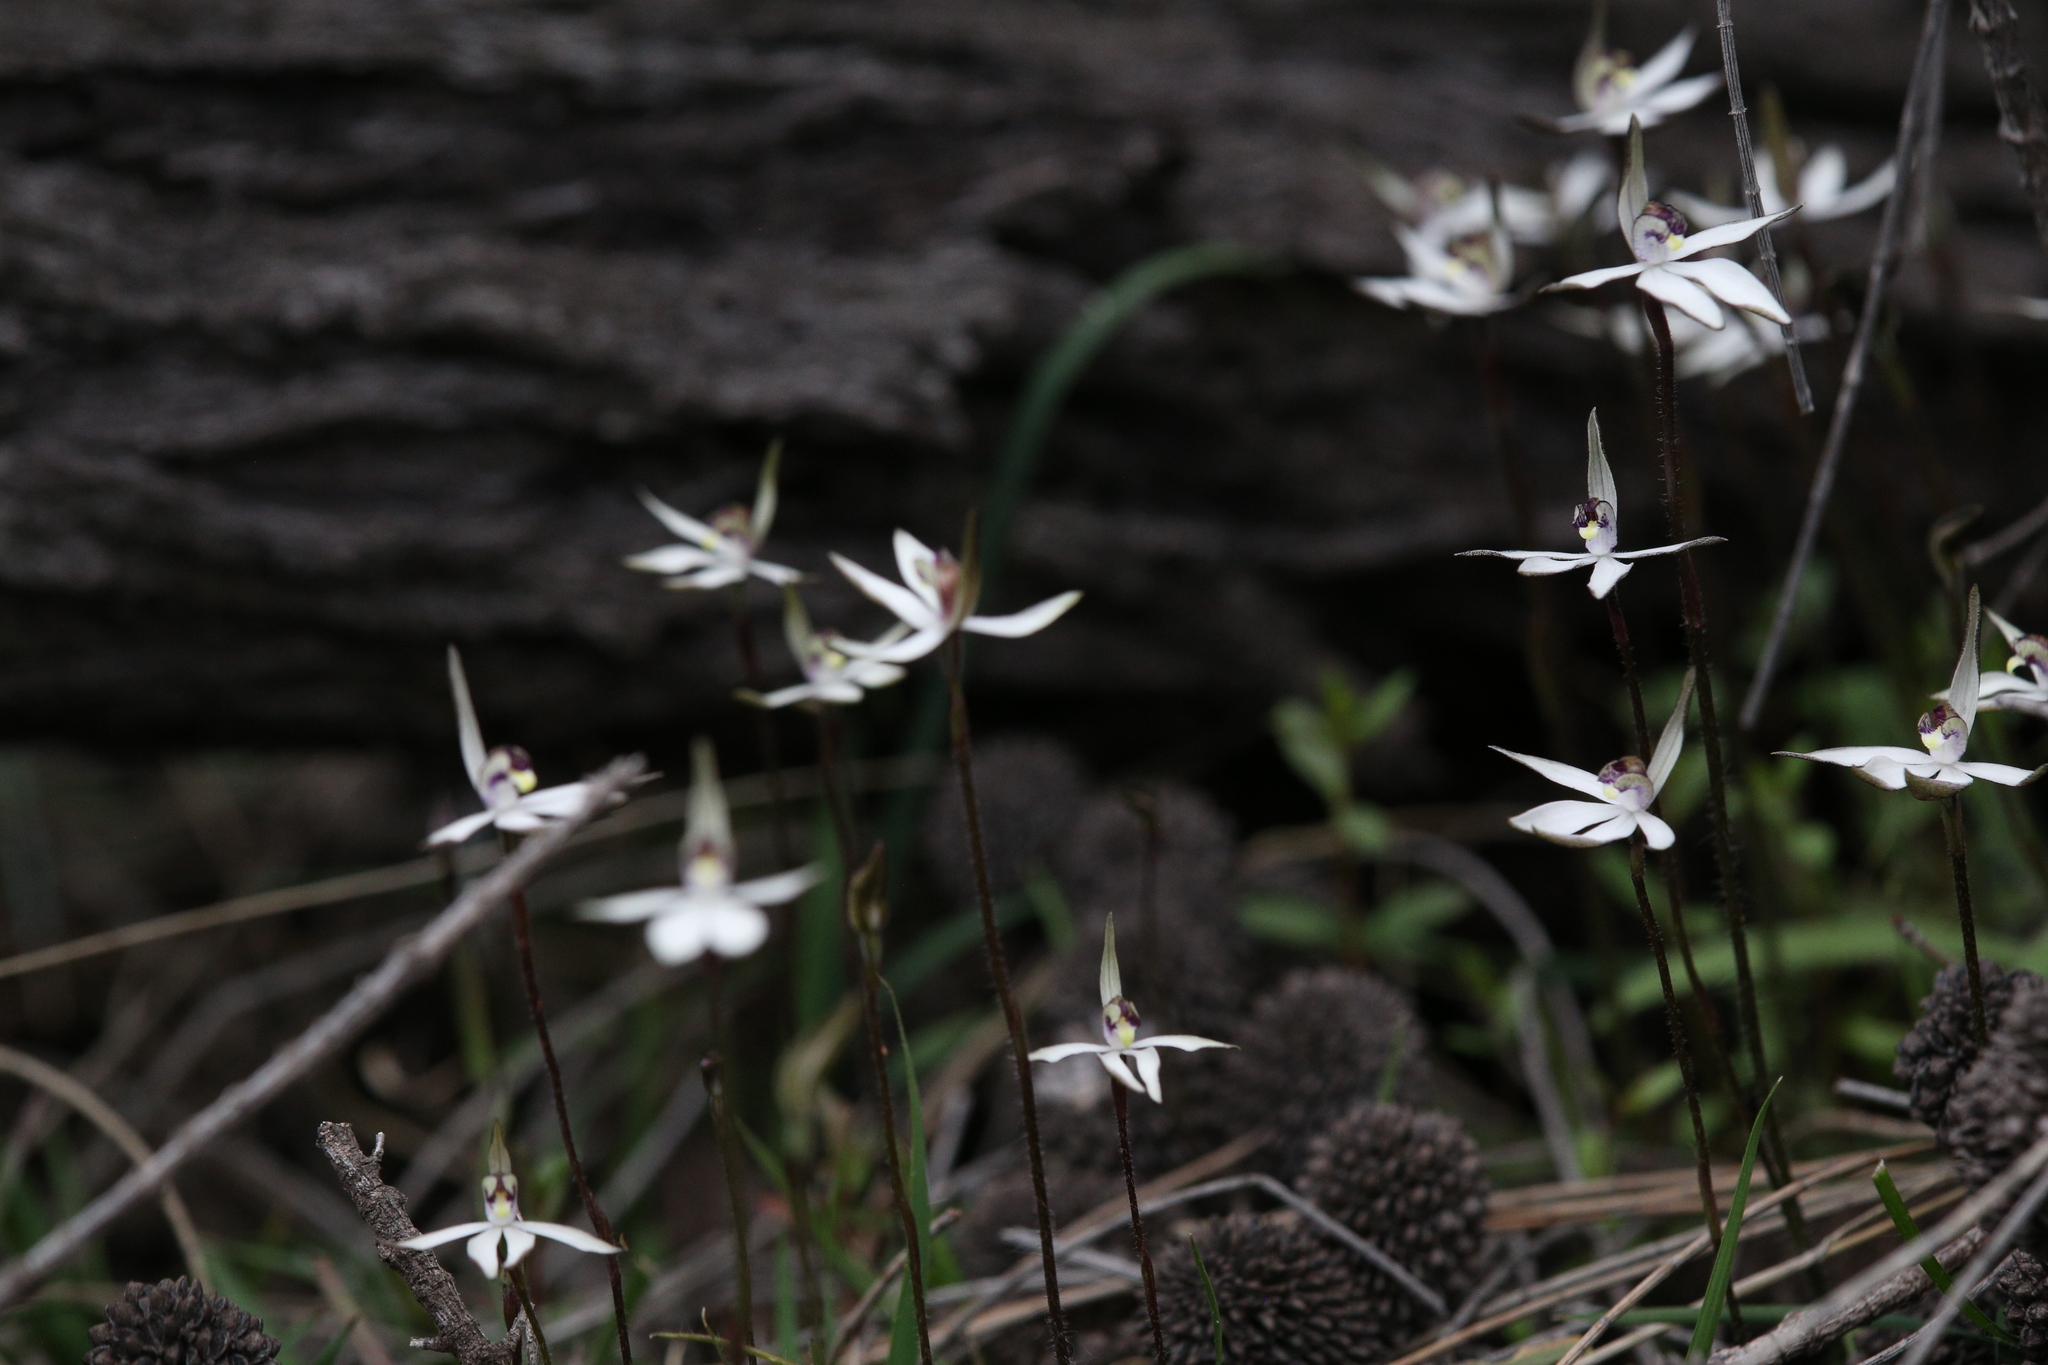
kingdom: Plantae
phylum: Tracheophyta
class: Liliopsida
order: Asparagales
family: Orchidaceae
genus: Caladenia
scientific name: Caladenia saccharata
